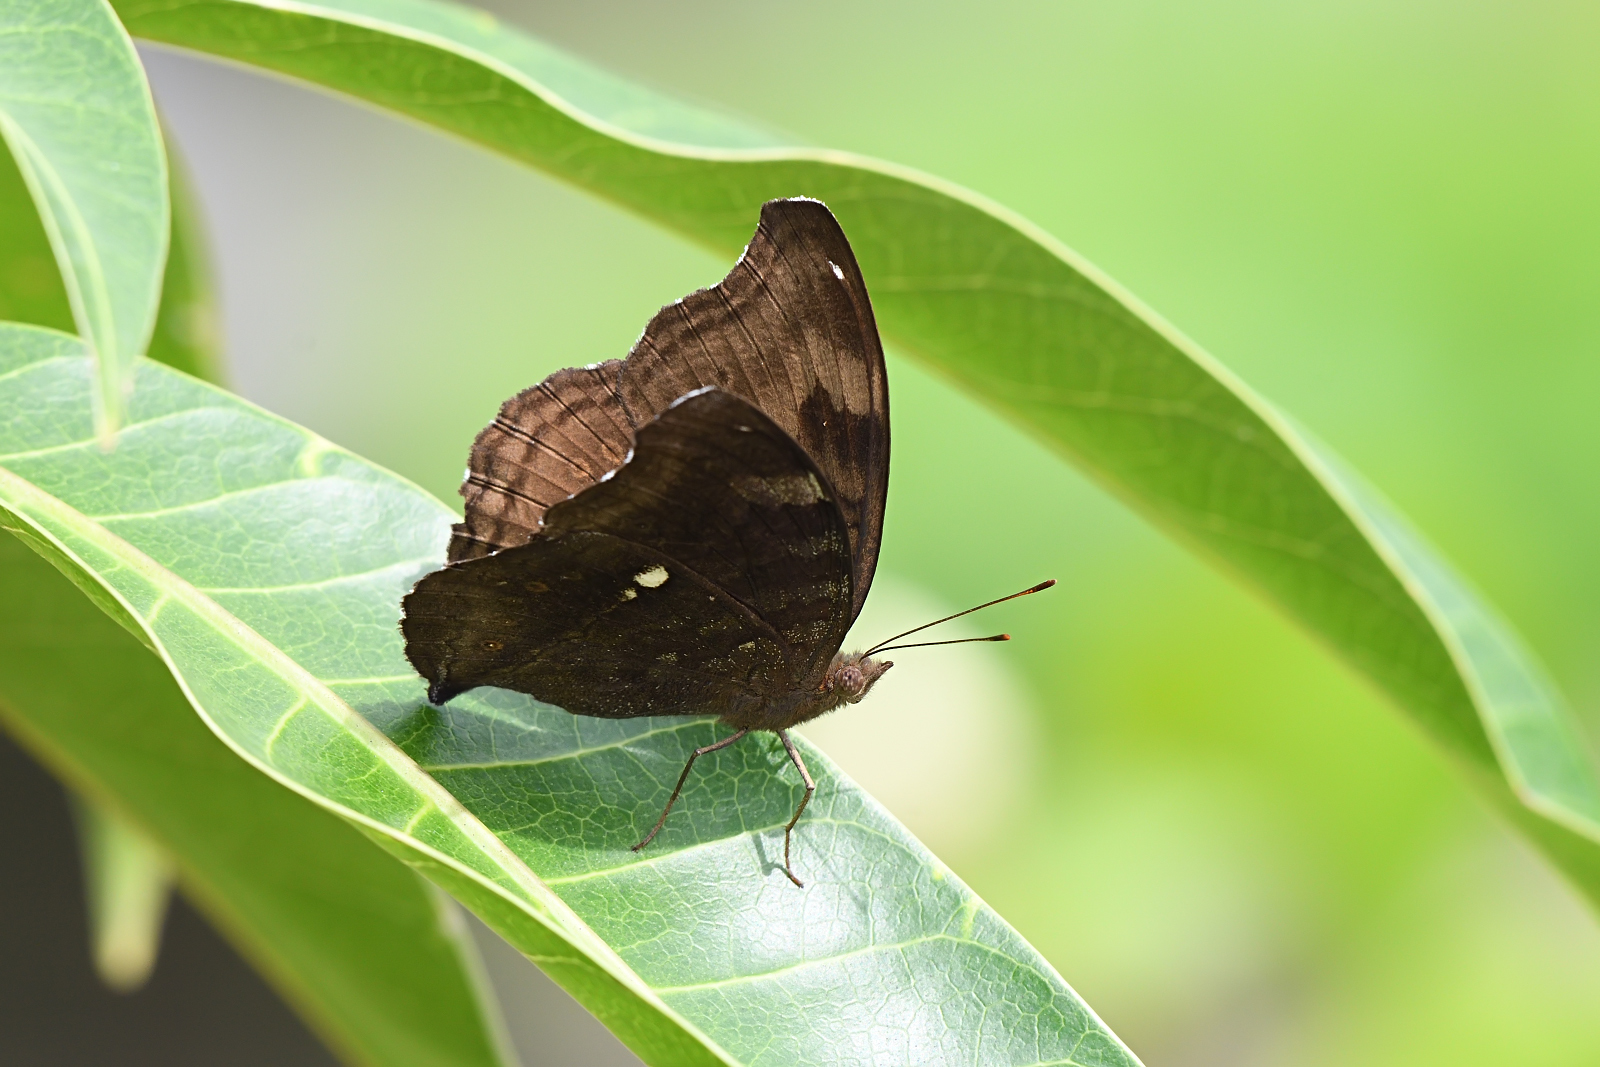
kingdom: Animalia
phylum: Arthropoda
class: Insecta
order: Lepidoptera
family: Nymphalidae
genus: Junonia
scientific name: Junonia iphita
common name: Chocolate pansy
